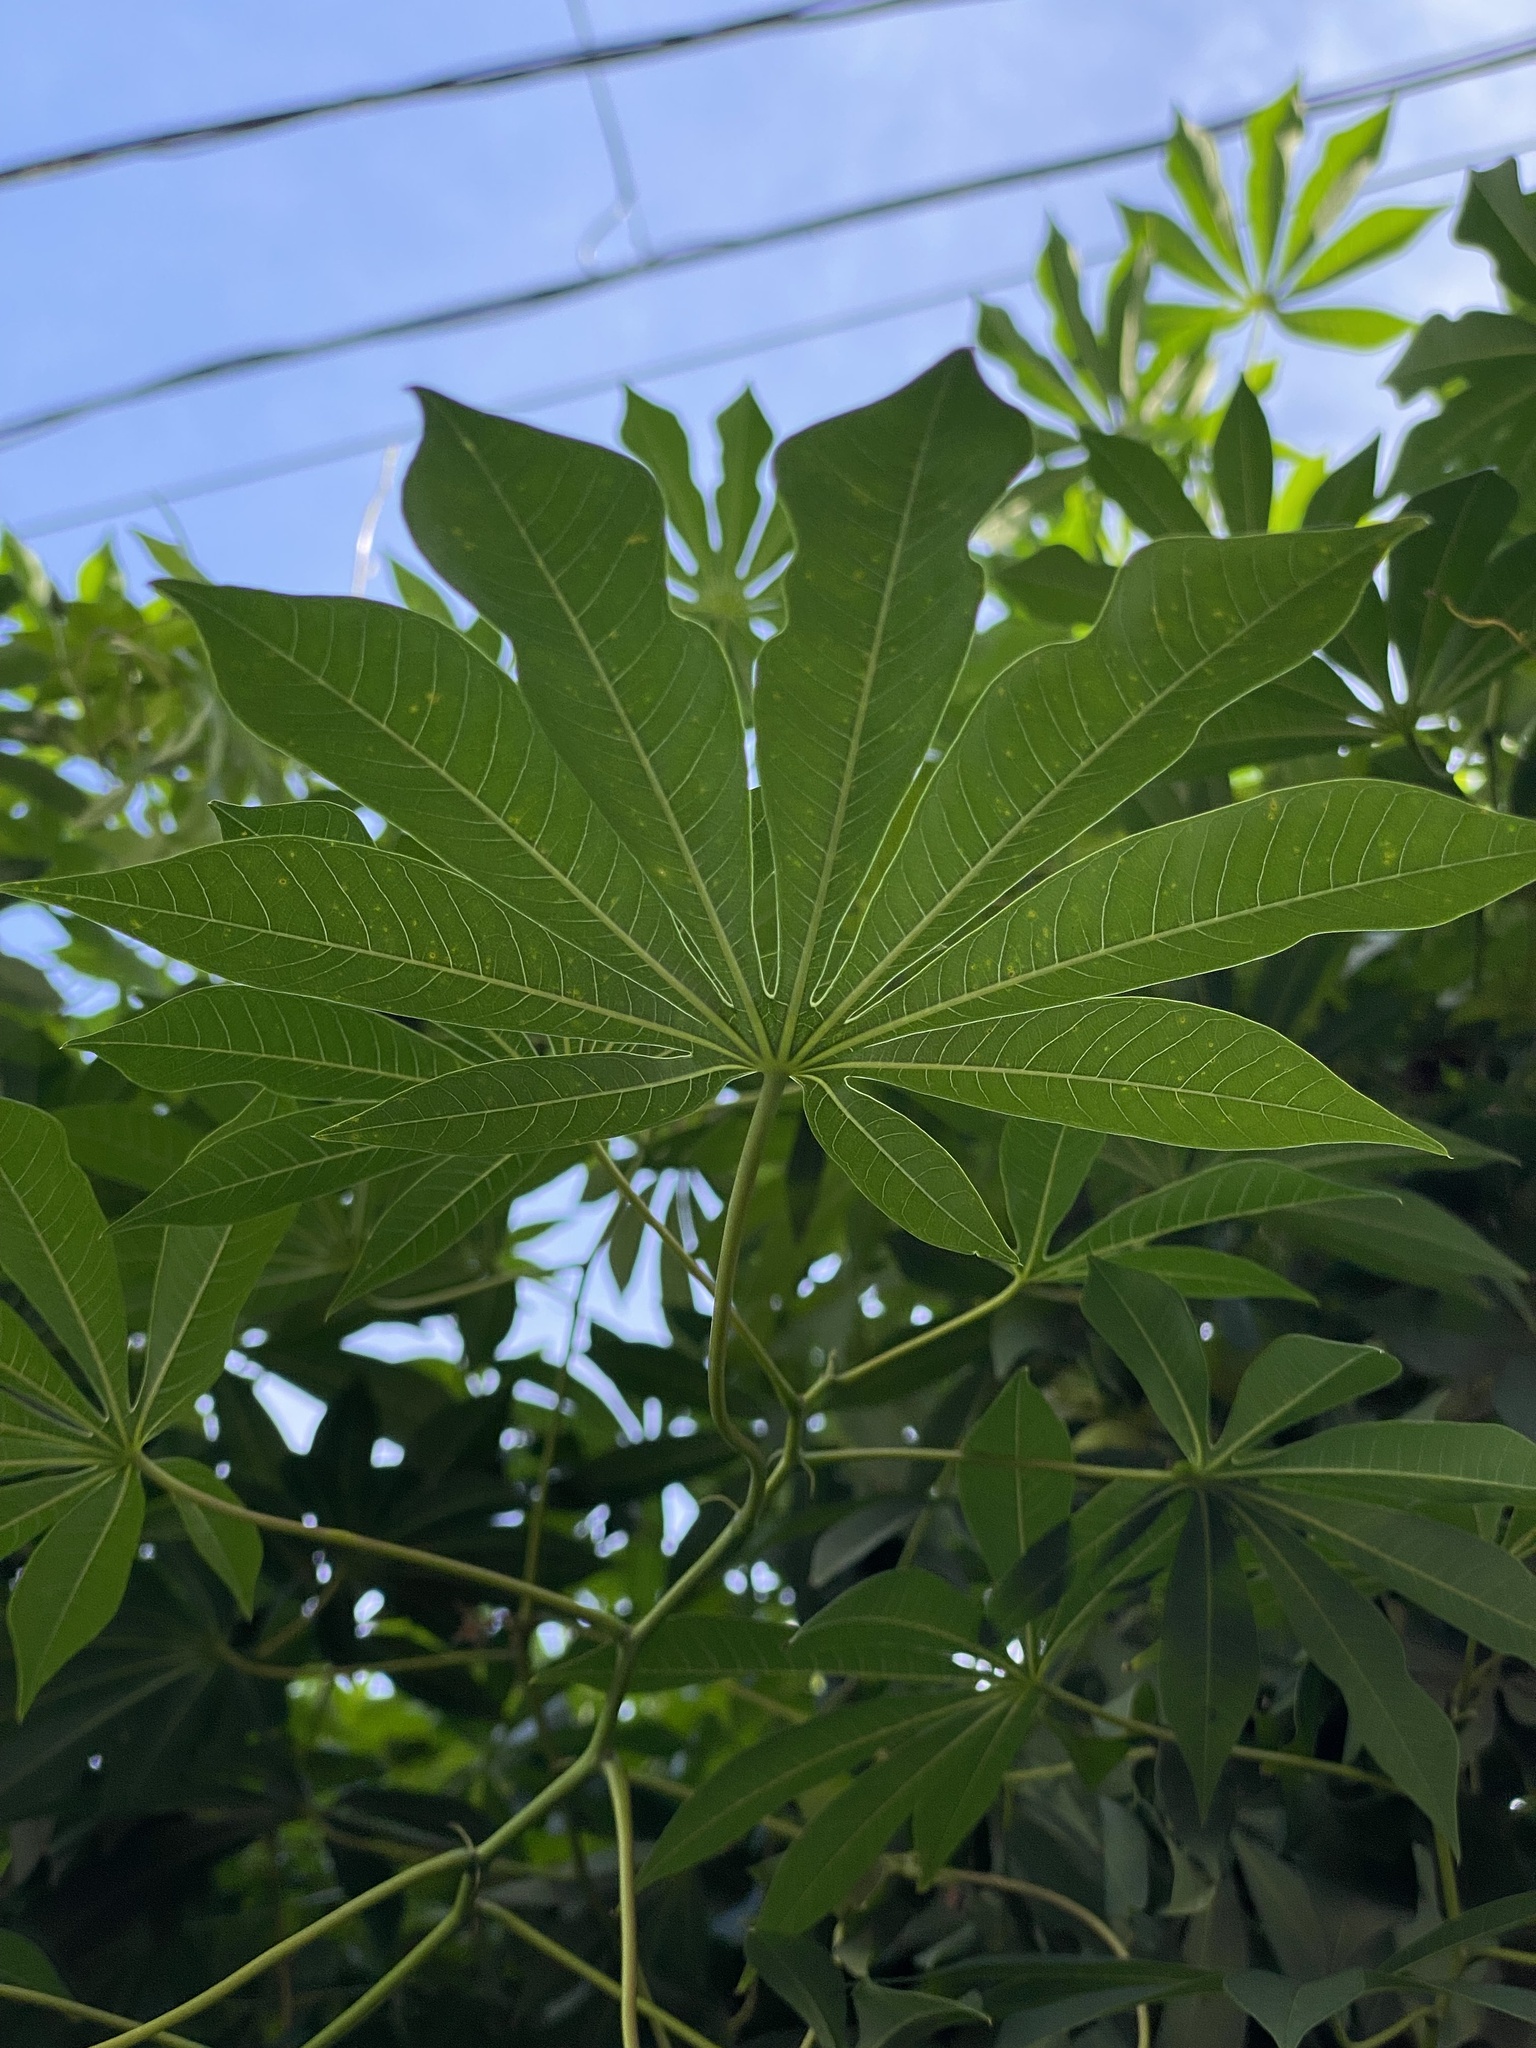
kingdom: Plantae
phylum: Tracheophyta
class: Magnoliopsida
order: Malpighiales
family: Euphorbiaceae
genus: Manihot
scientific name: Manihot grahamii
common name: Graham's manihot
